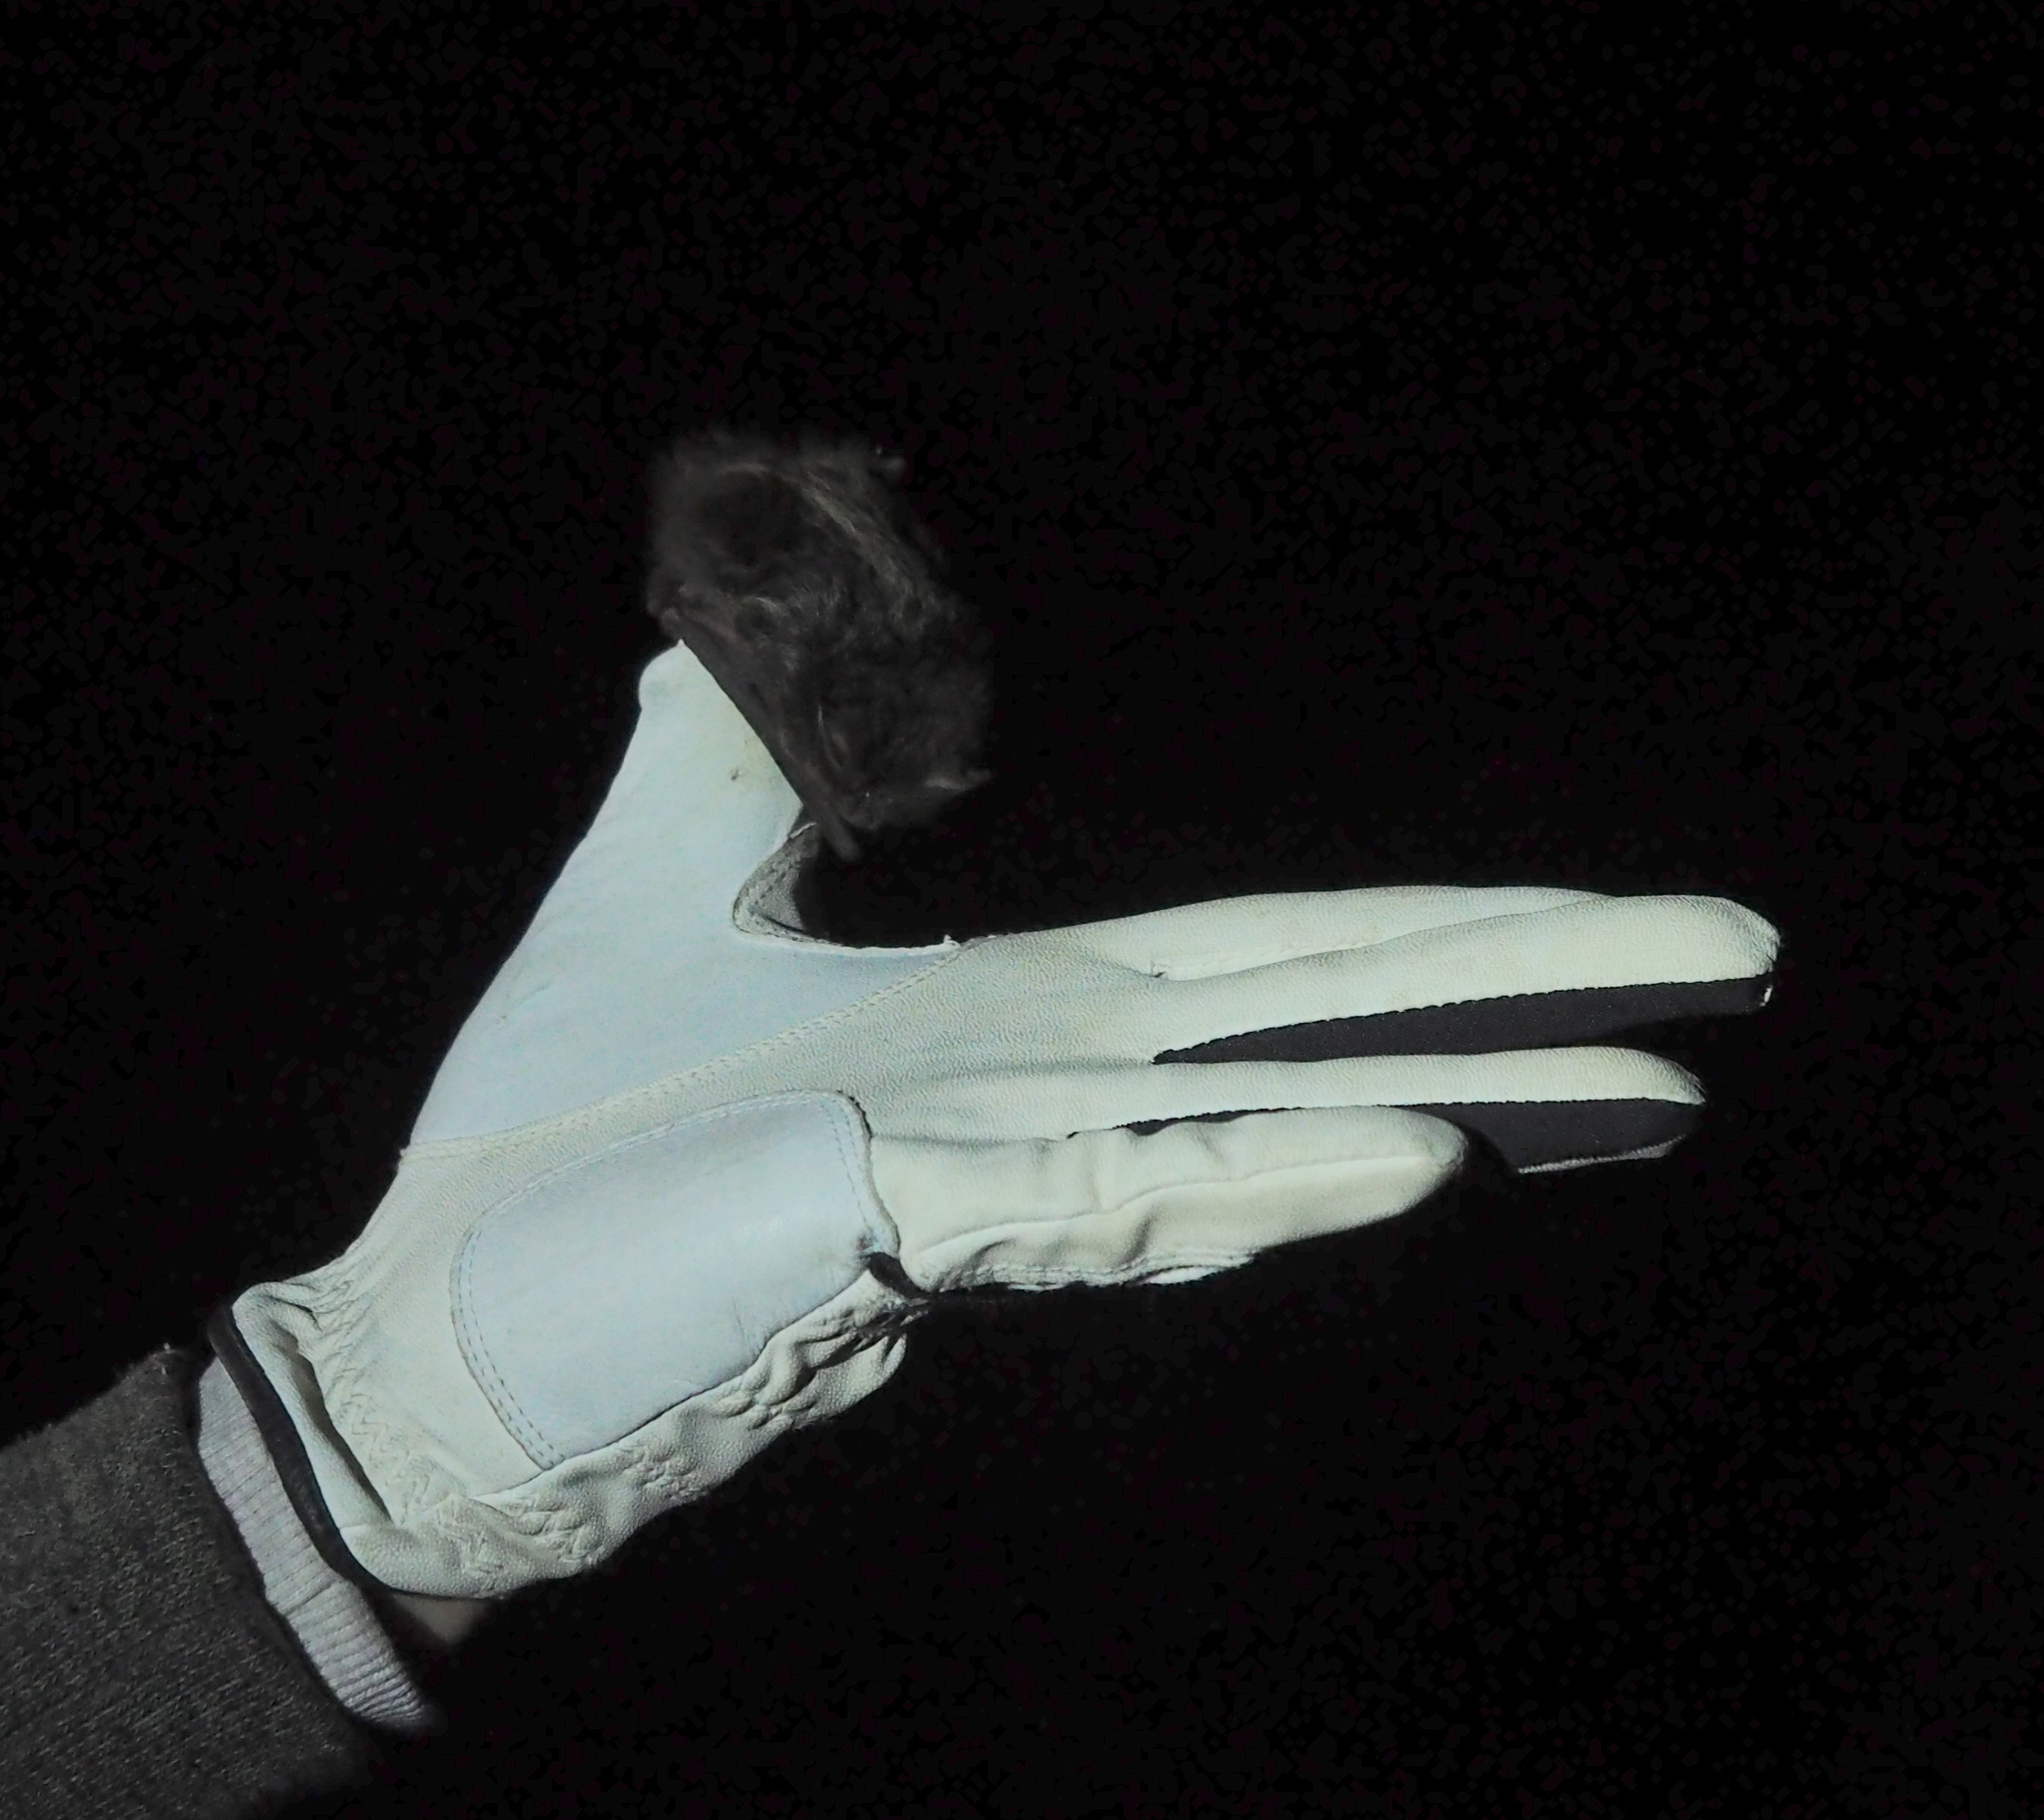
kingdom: Animalia
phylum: Chordata
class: Mammalia
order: Chiroptera
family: Vespertilionidae
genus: Barbastella
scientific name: Barbastella barbastellus
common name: Western barbastelle
